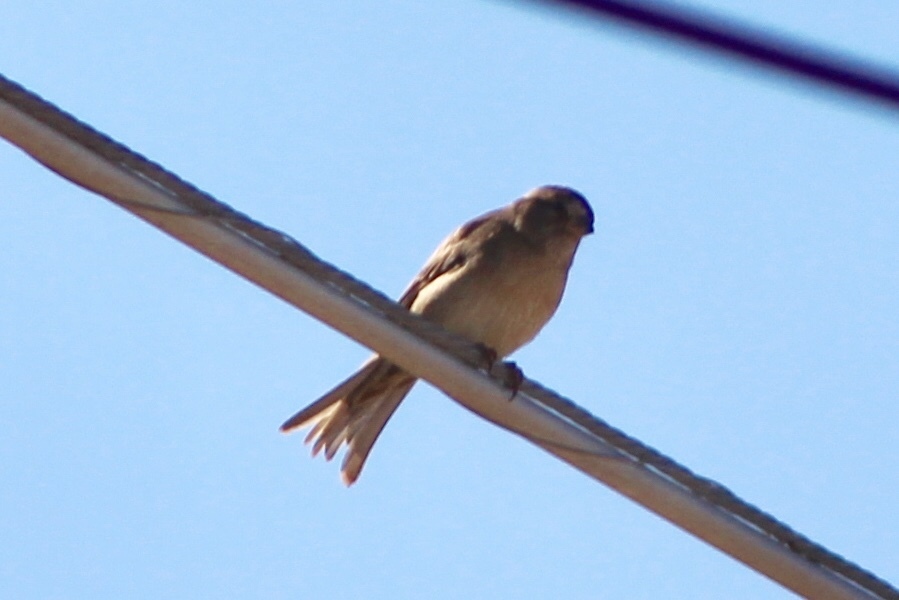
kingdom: Animalia
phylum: Chordata
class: Aves
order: Passeriformes
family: Passeridae
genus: Passer
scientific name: Passer domesticus
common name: House sparrow
